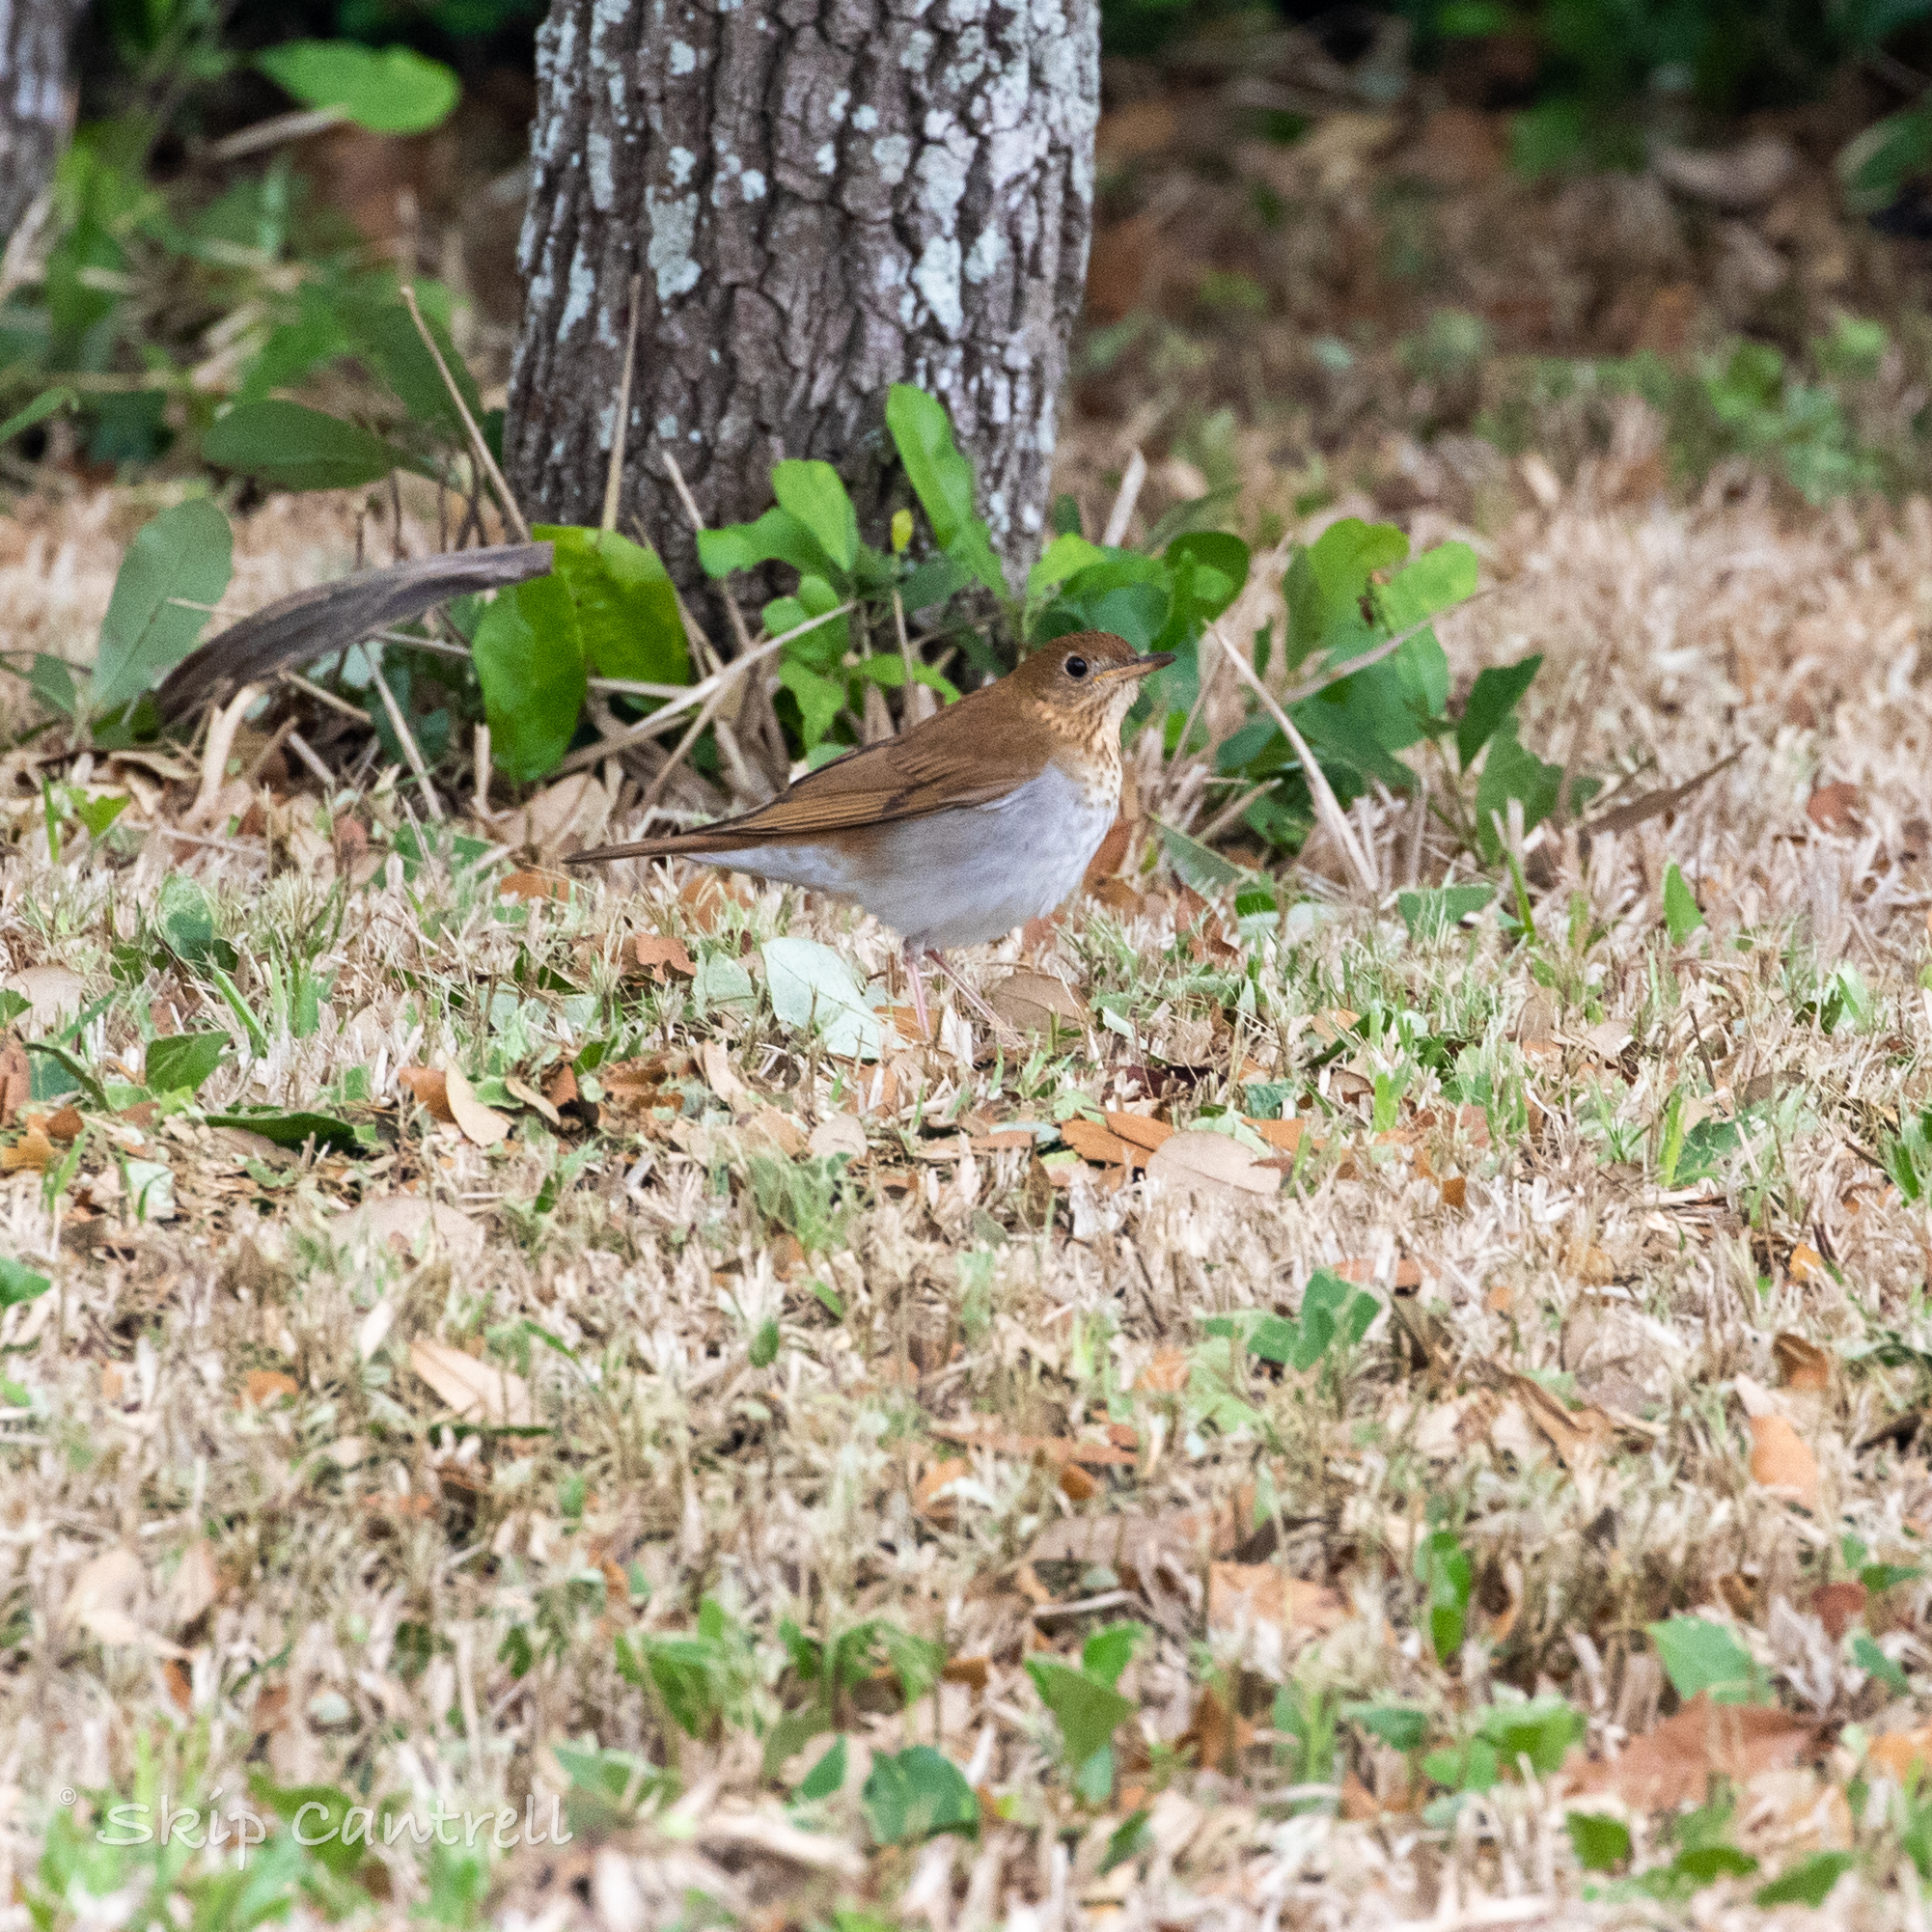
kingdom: Animalia
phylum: Chordata
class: Aves
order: Passeriformes
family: Turdidae
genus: Catharus
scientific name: Catharus fuscescens
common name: Veery
